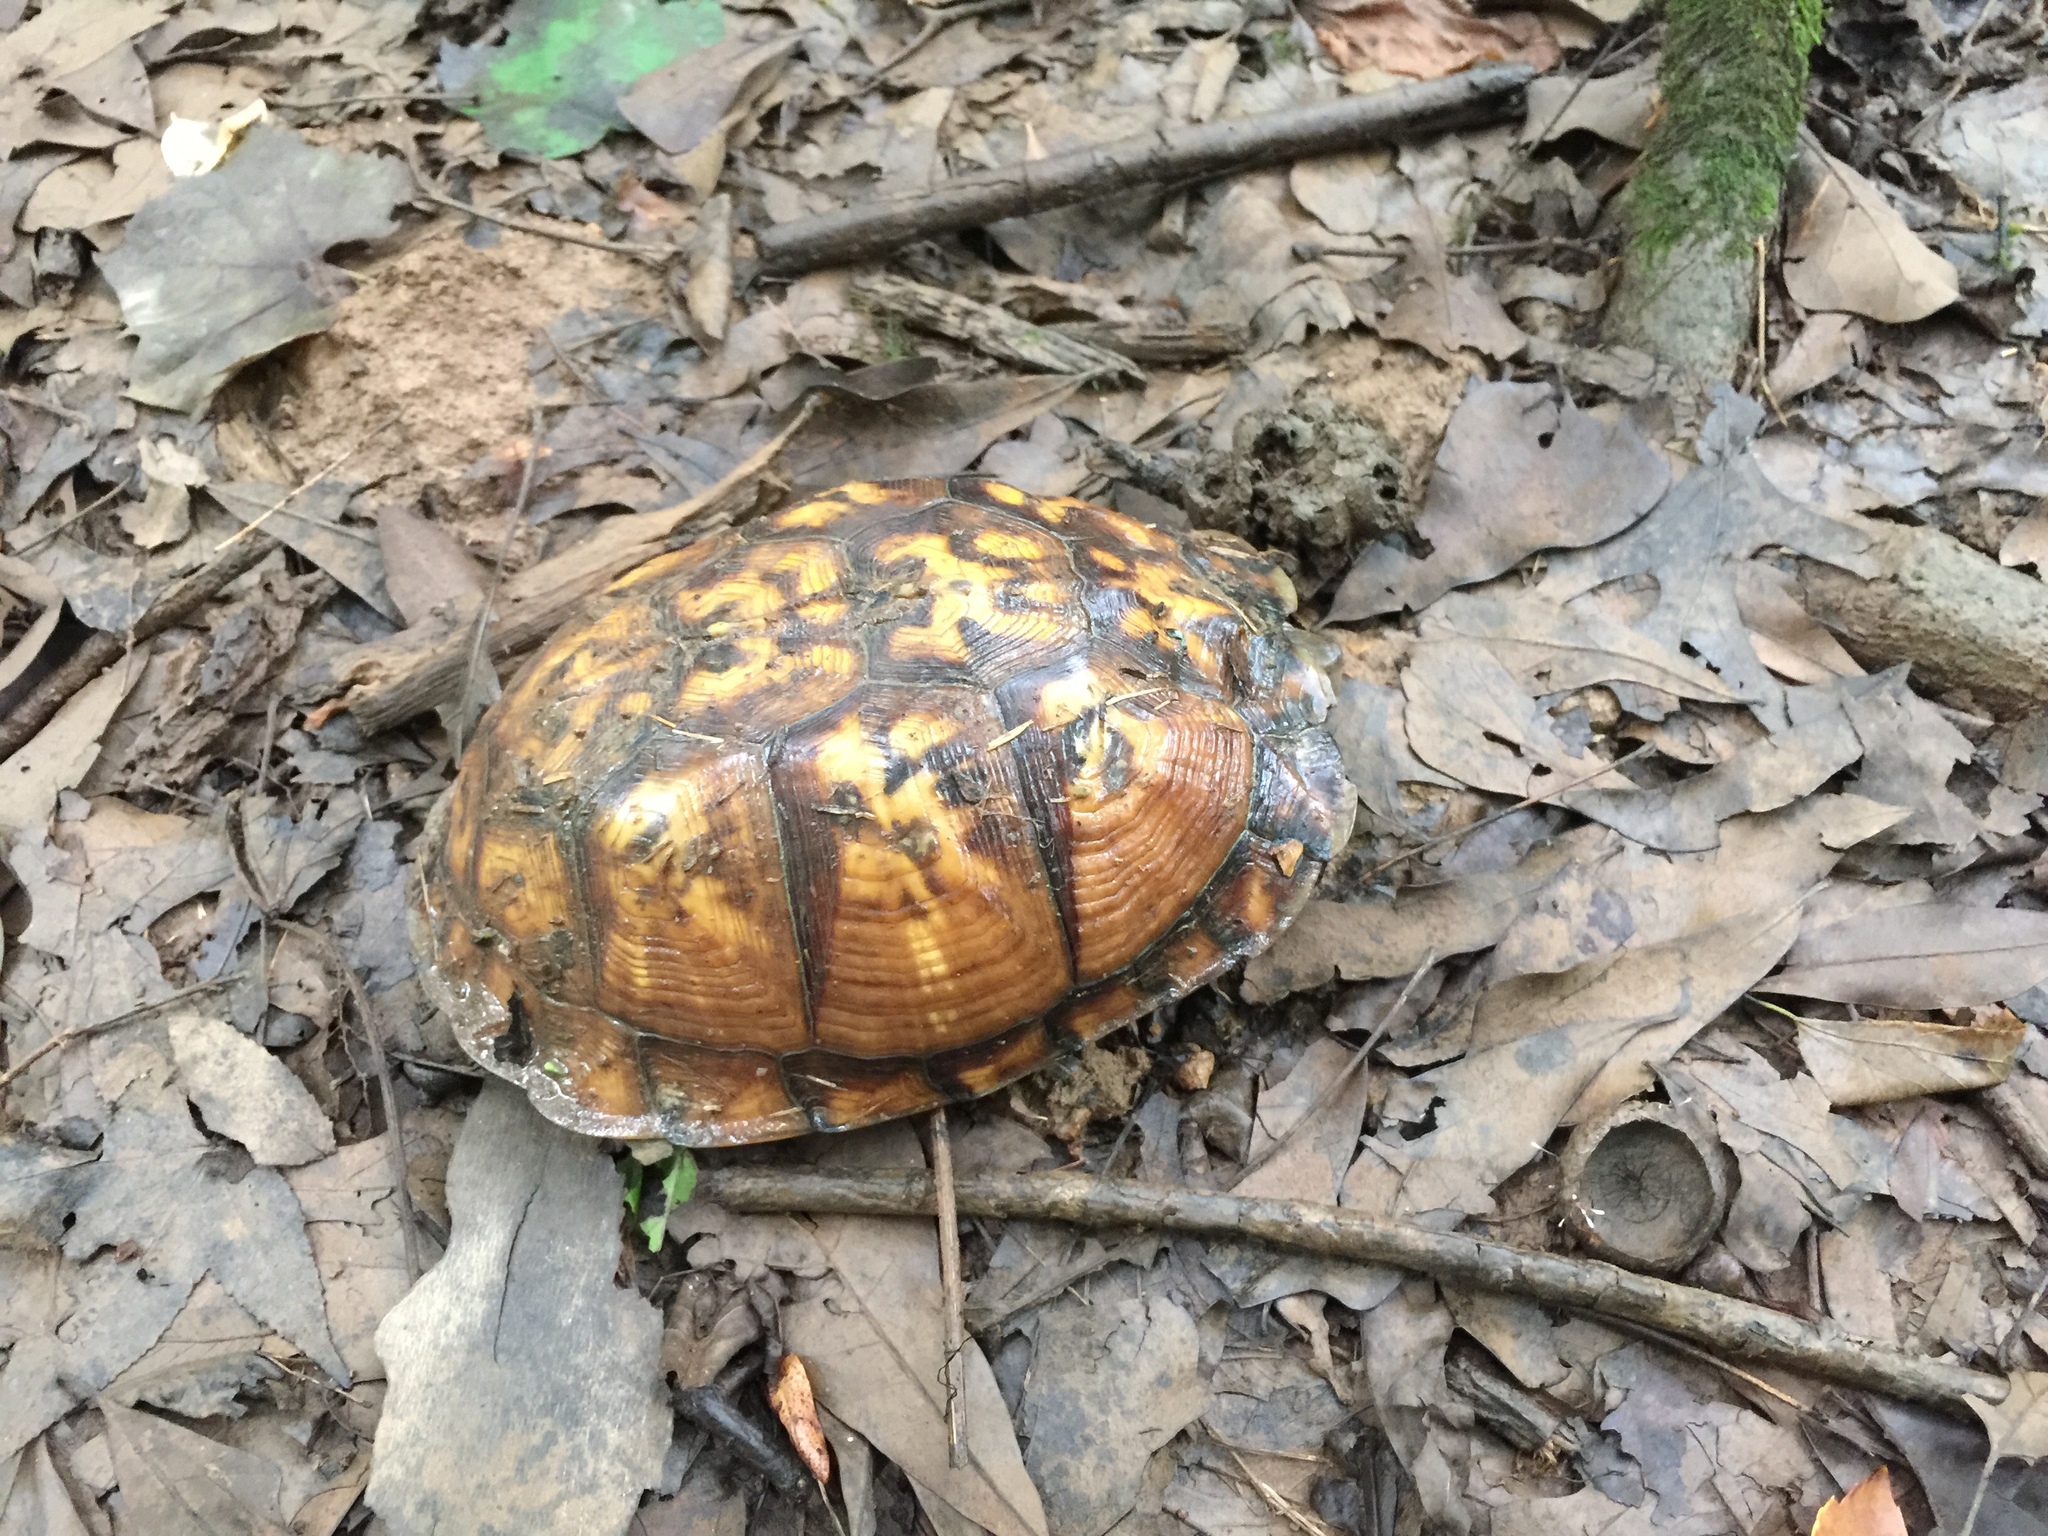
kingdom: Animalia
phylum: Chordata
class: Testudines
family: Emydidae
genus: Terrapene
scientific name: Terrapene carolina
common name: Common box turtle
